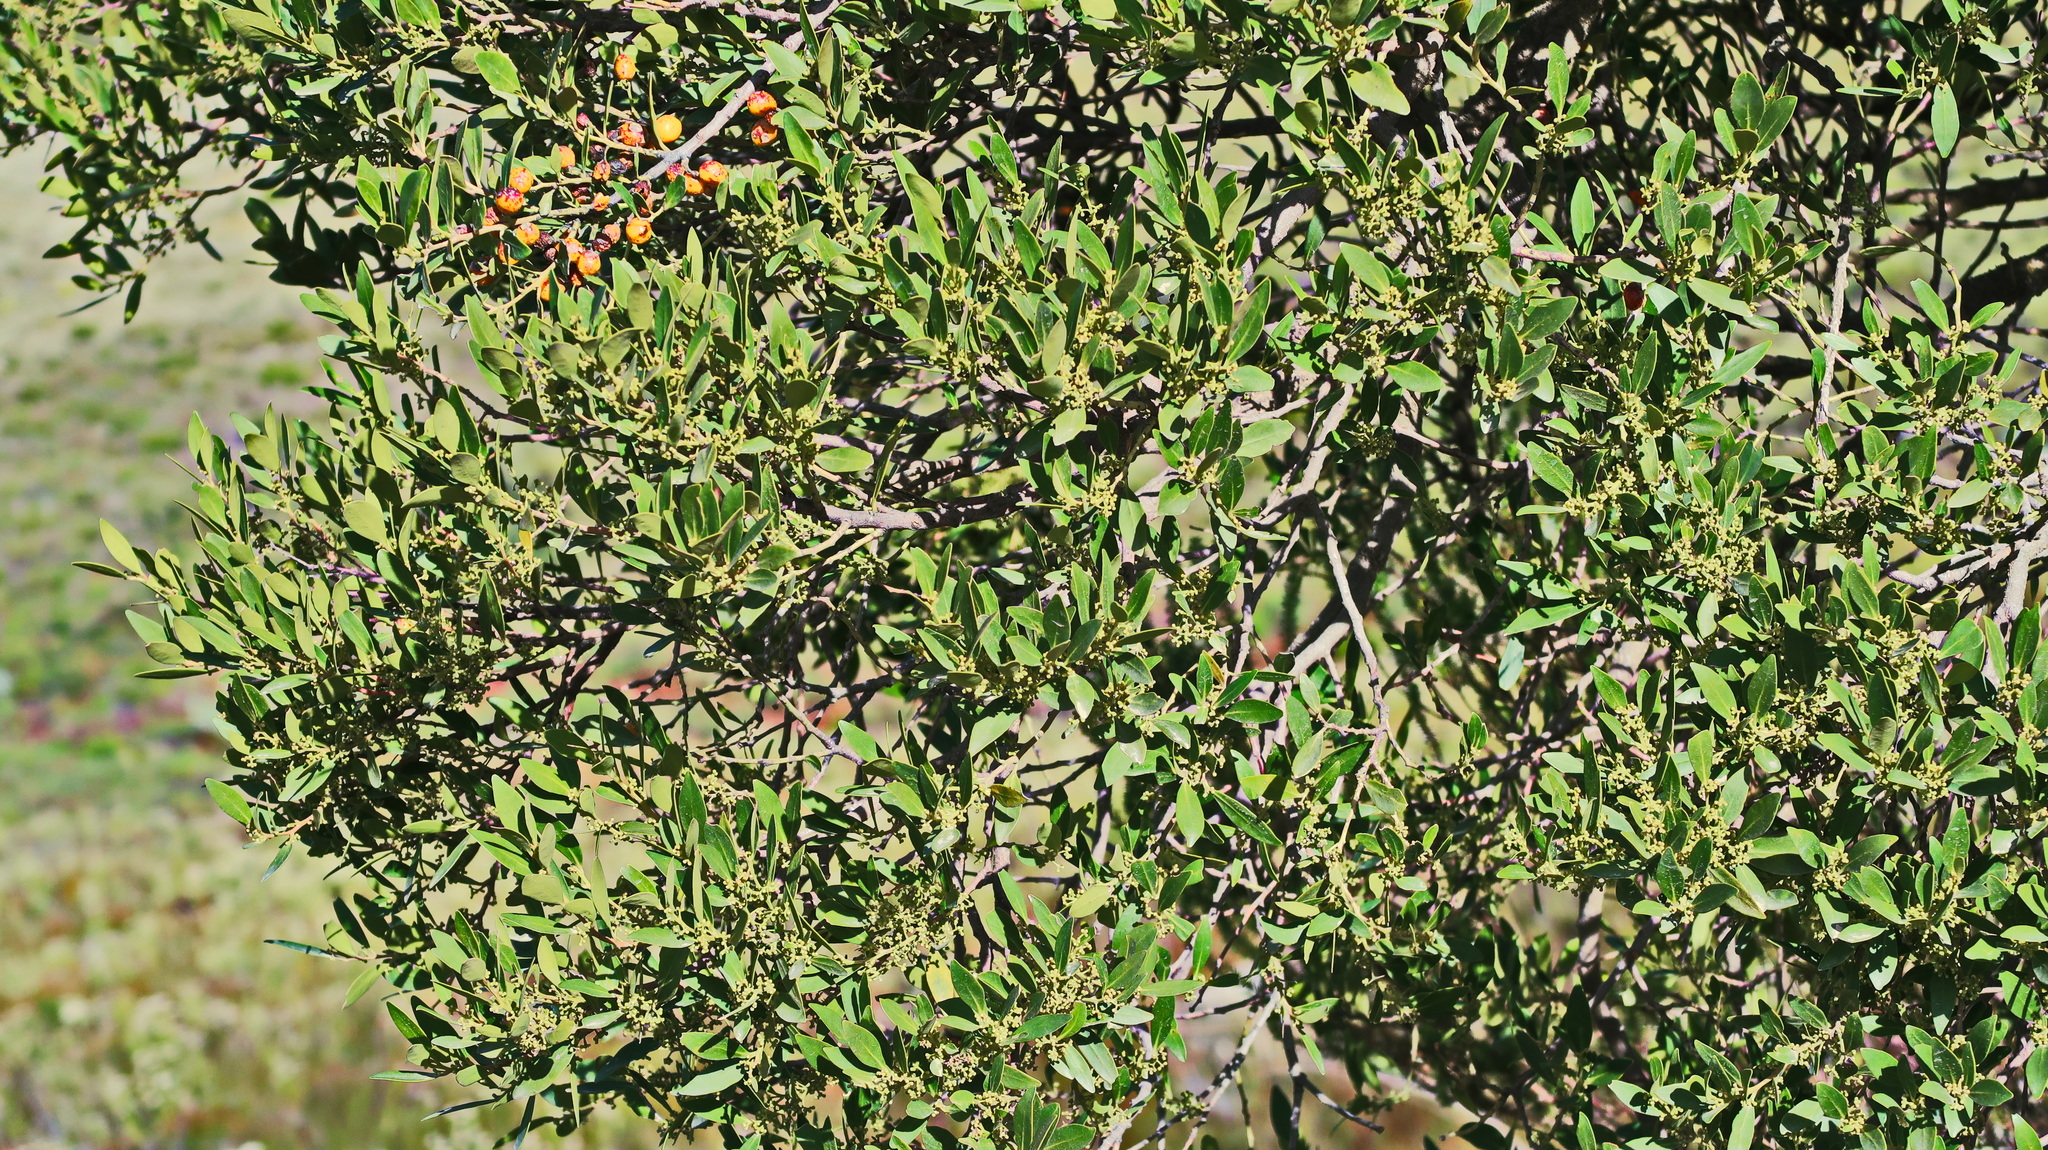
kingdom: Plantae
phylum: Tracheophyta
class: Magnoliopsida
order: Celastrales
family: Celastraceae
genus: Gymnosporia
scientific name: Gymnosporia laurina
